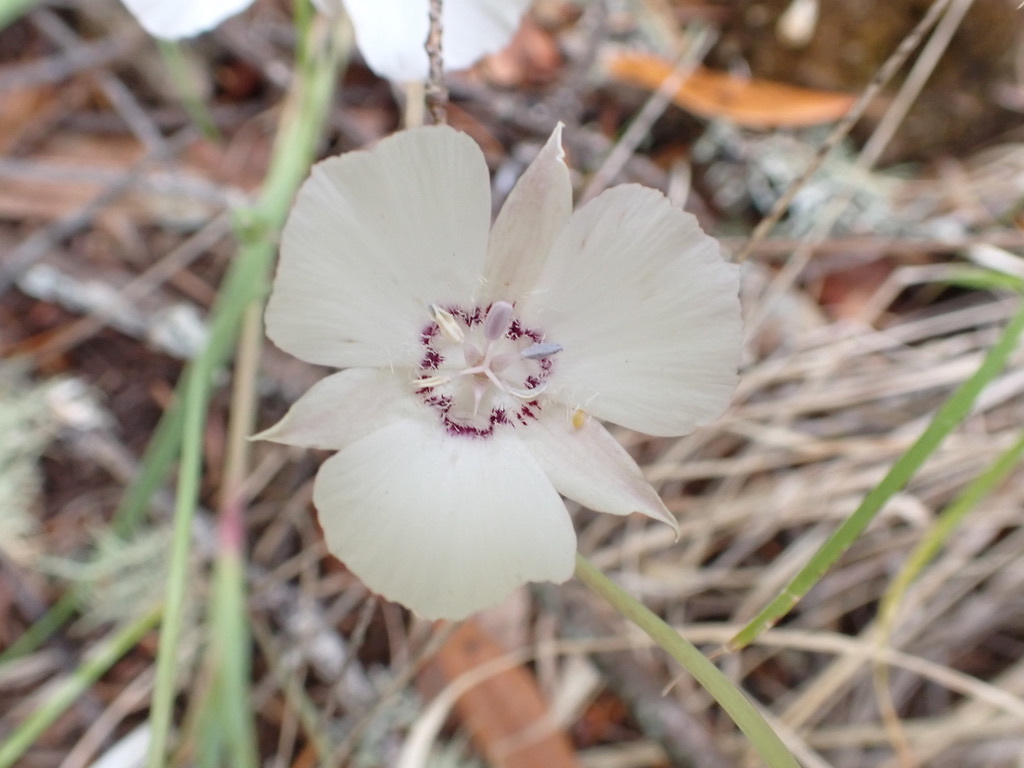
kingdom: Plantae
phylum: Tracheophyta
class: Liliopsida
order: Liliales
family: Liliaceae
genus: Calochortus
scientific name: Calochortus umbellatus
